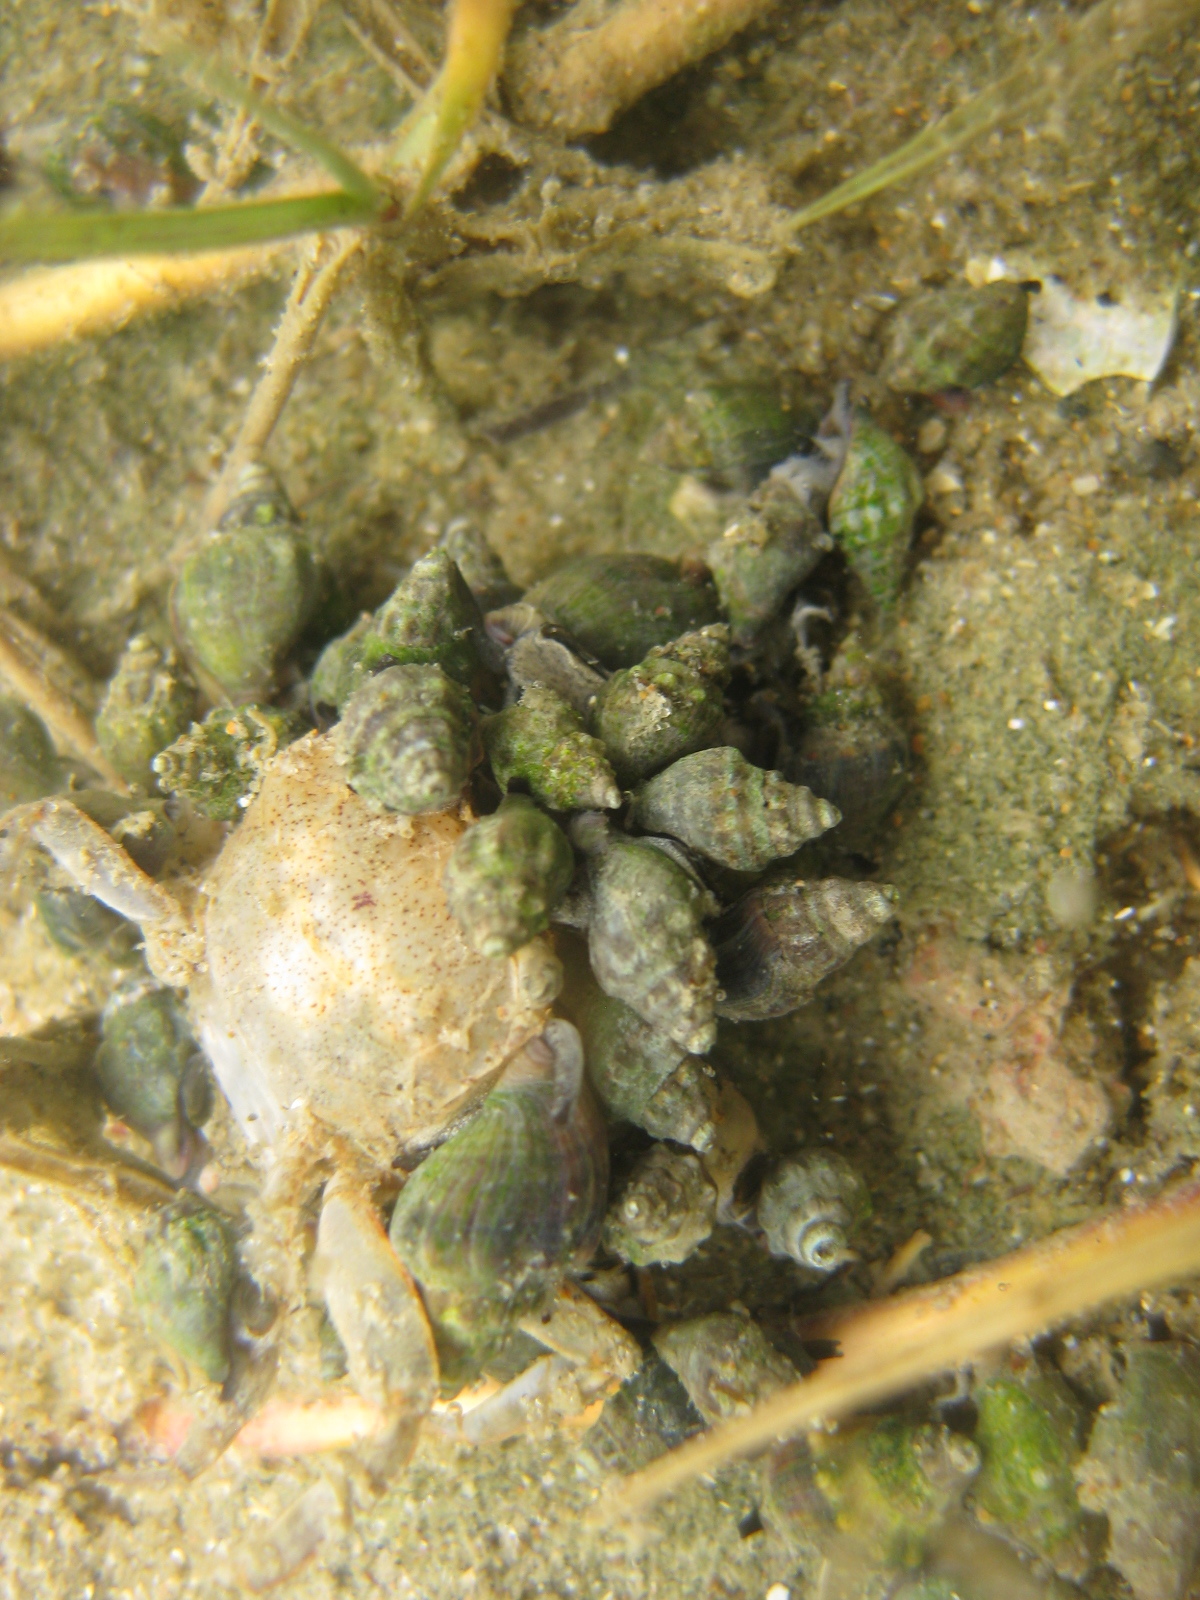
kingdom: Animalia
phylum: Mollusca
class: Gastropoda
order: Neogastropoda
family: Cominellidae
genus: Cominella
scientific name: Cominella glandiformis
